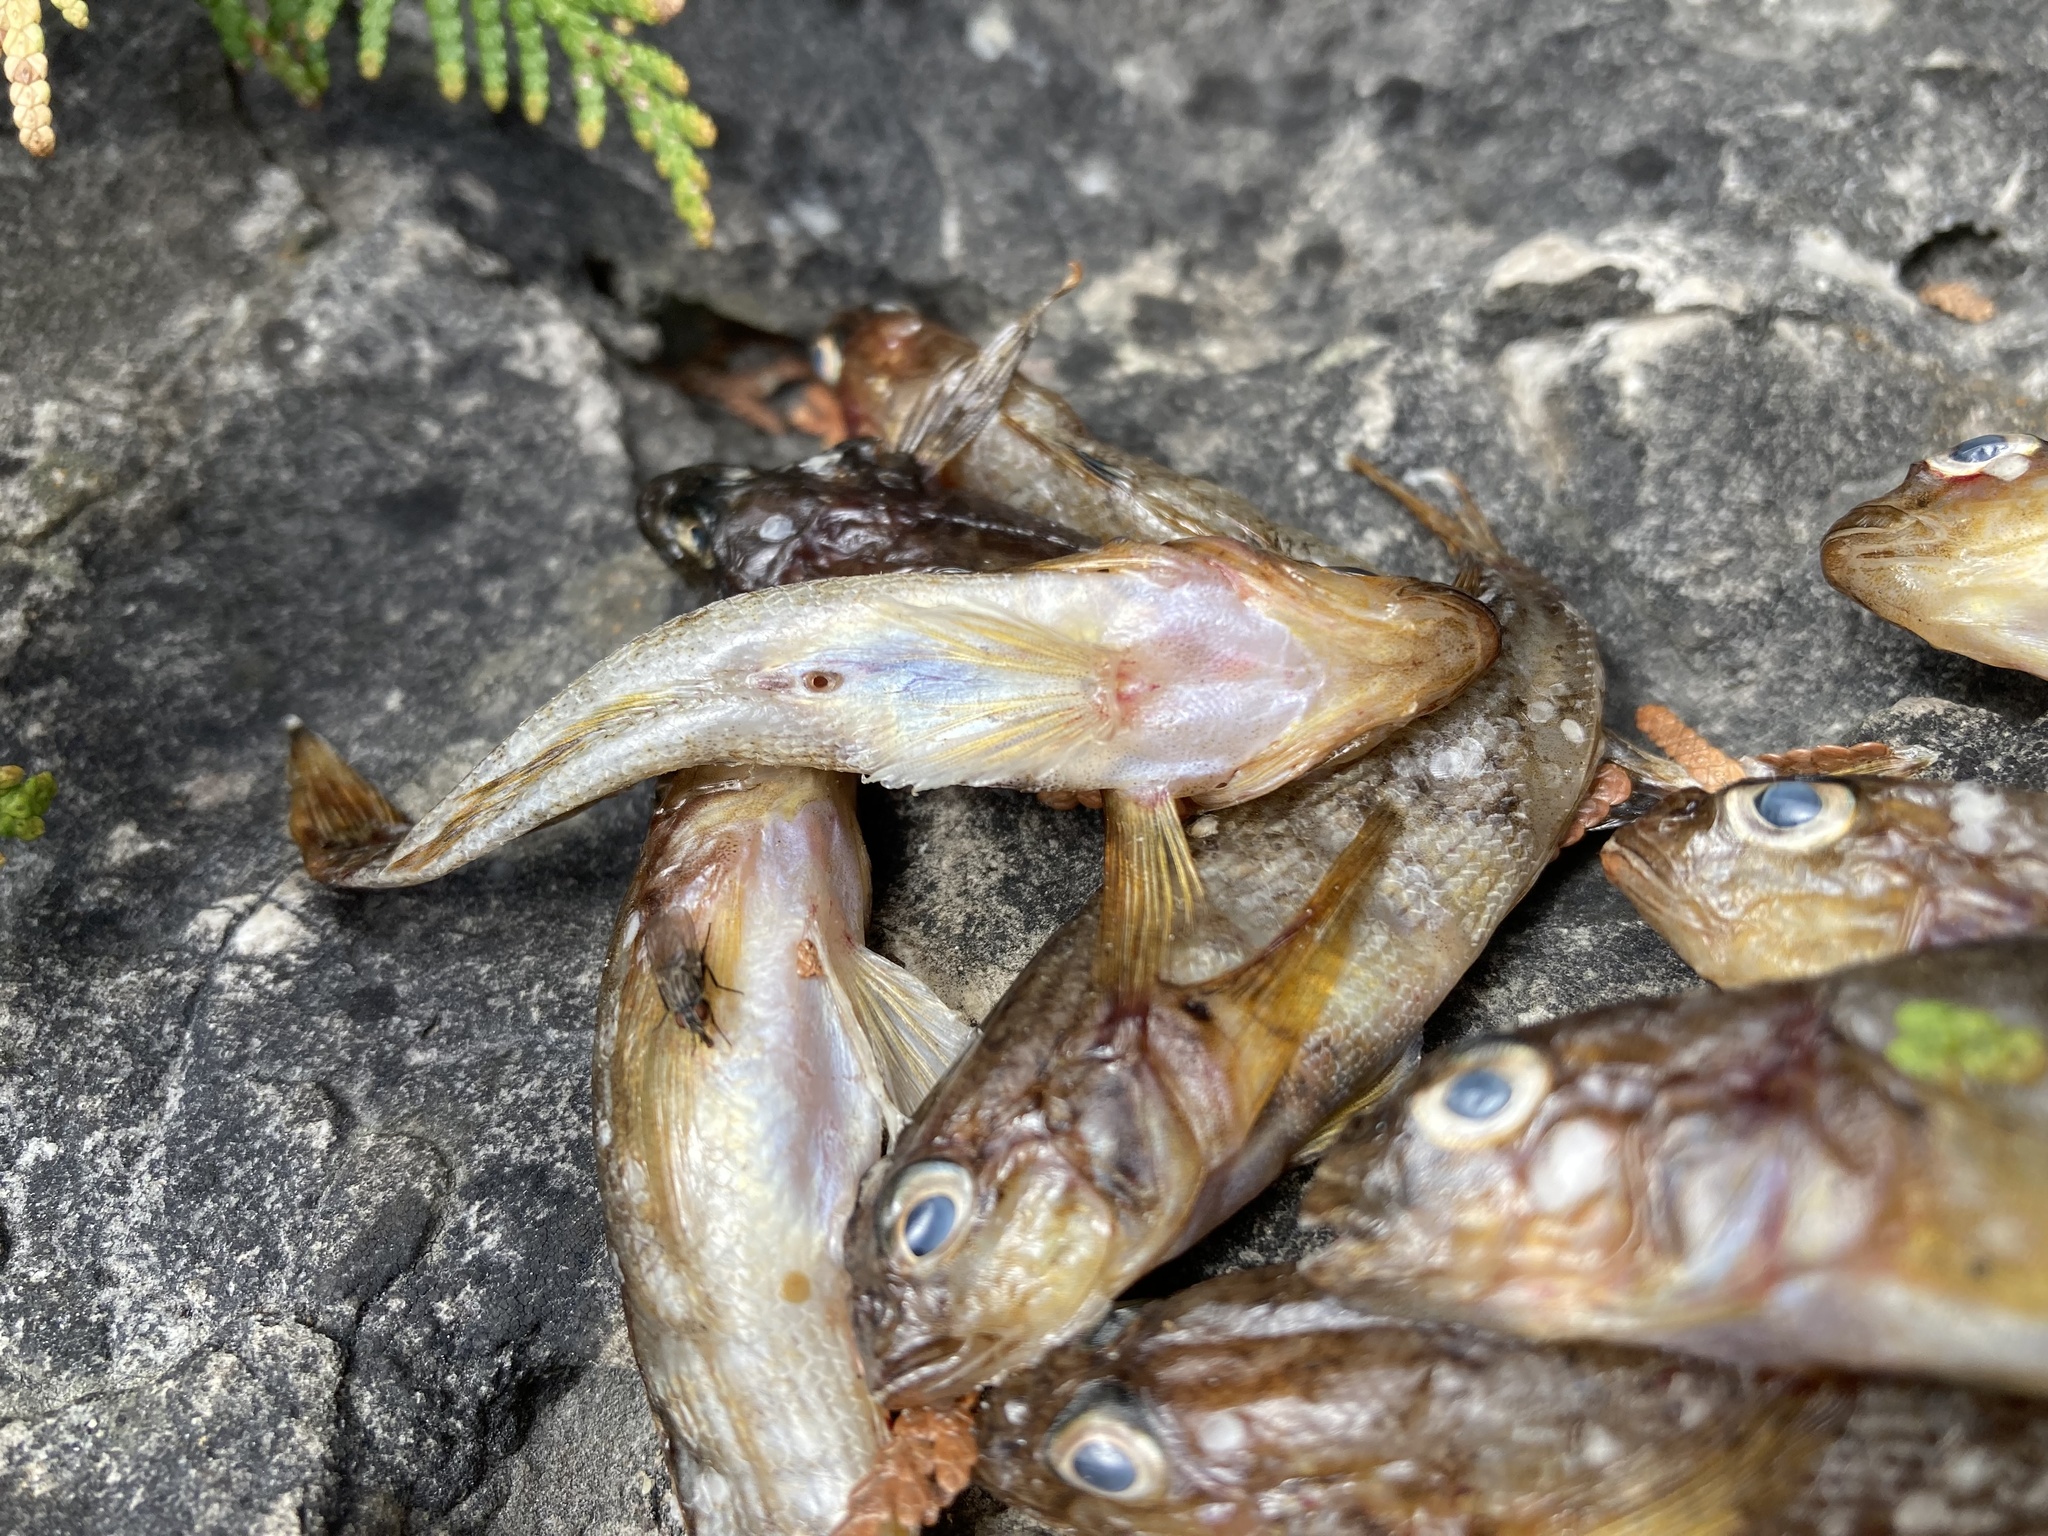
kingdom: Animalia
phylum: Chordata
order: Perciformes
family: Gobiidae
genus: Neogobius
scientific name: Neogobius melanostomus
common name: Round goby
